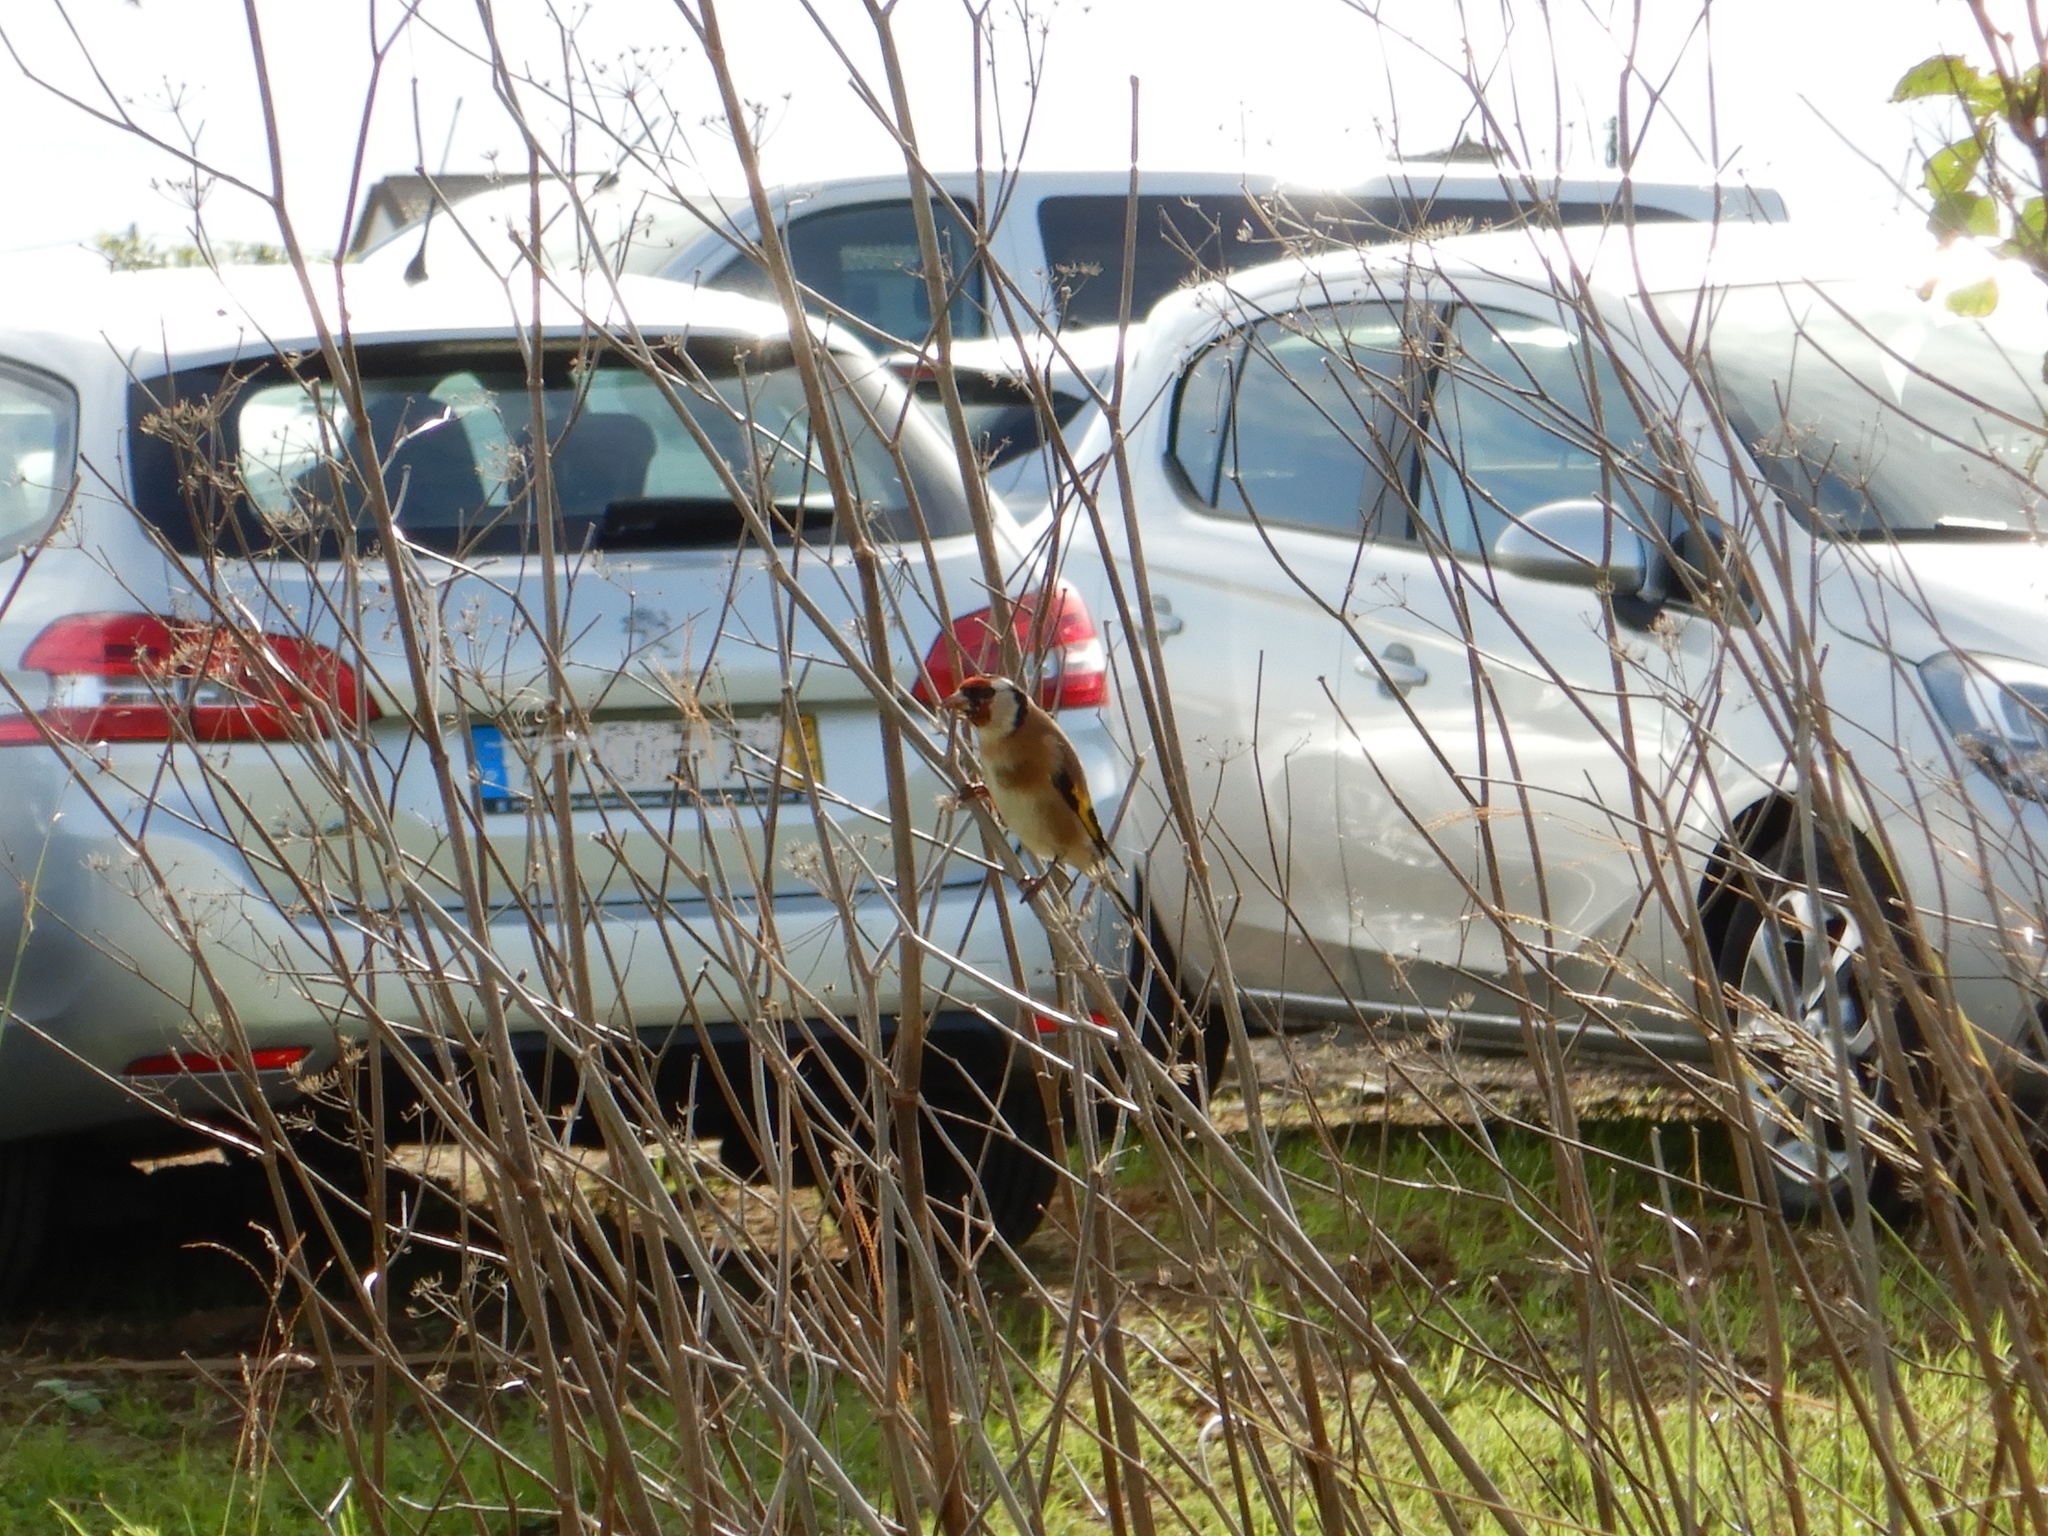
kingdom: Animalia
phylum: Chordata
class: Aves
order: Passeriformes
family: Fringillidae
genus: Carduelis
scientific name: Carduelis carduelis
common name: European goldfinch
